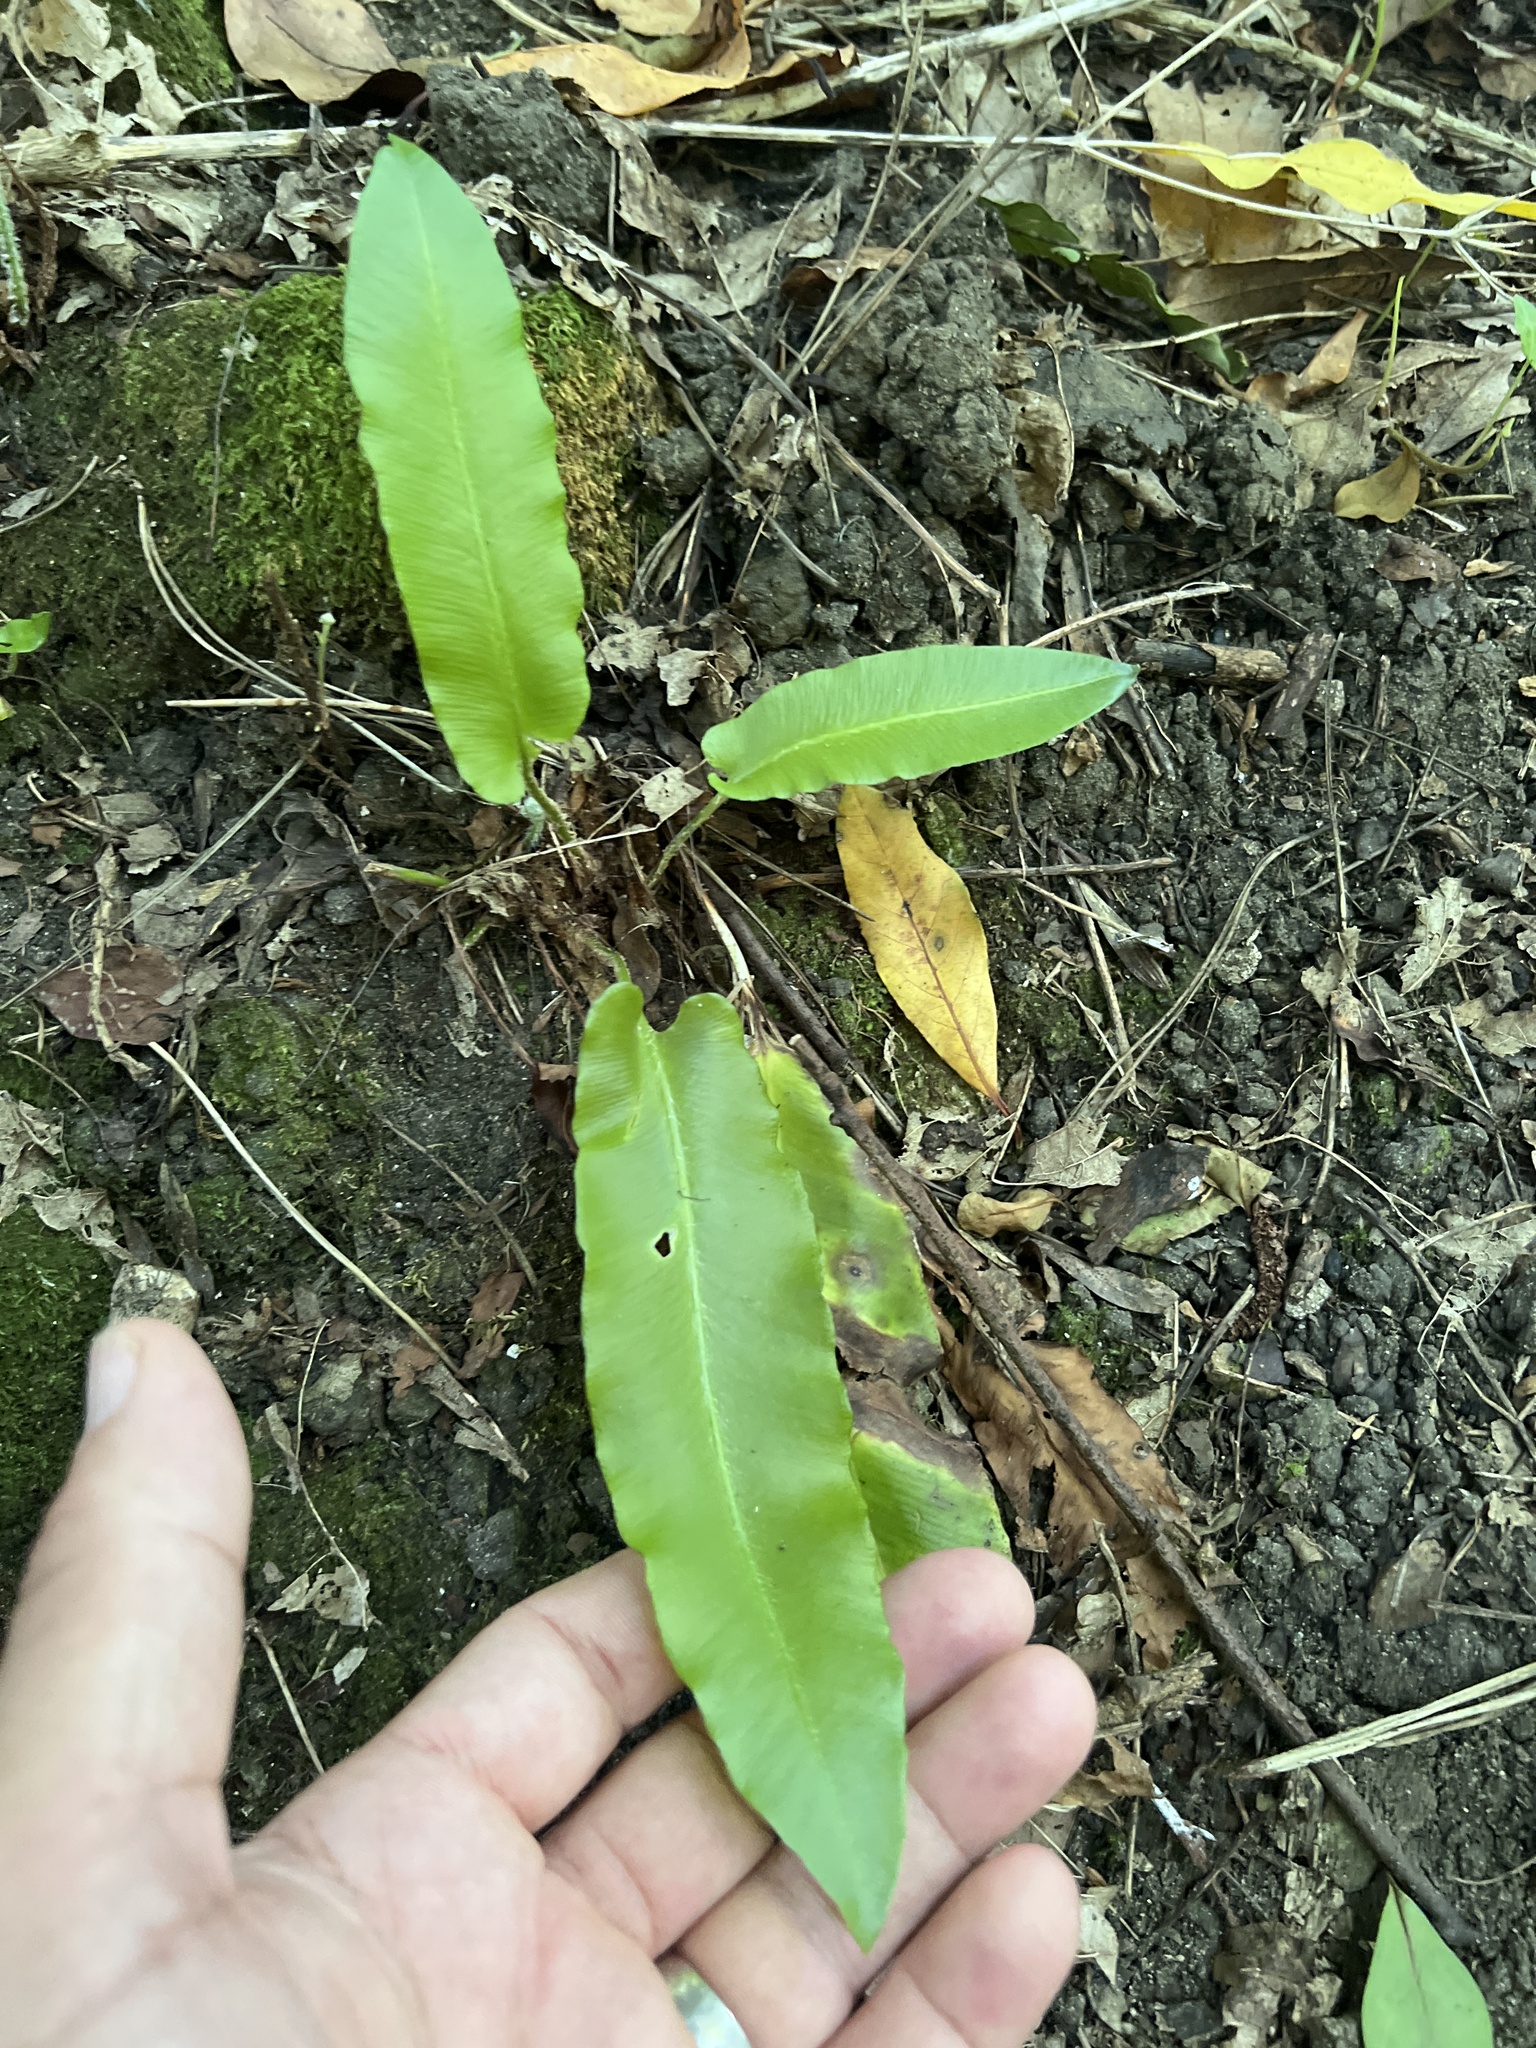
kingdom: Plantae
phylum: Tracheophyta
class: Polypodiopsida
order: Polypodiales
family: Aspleniaceae
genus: Asplenium
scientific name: Asplenium scolopendrium
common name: Hart's-tongue fern
